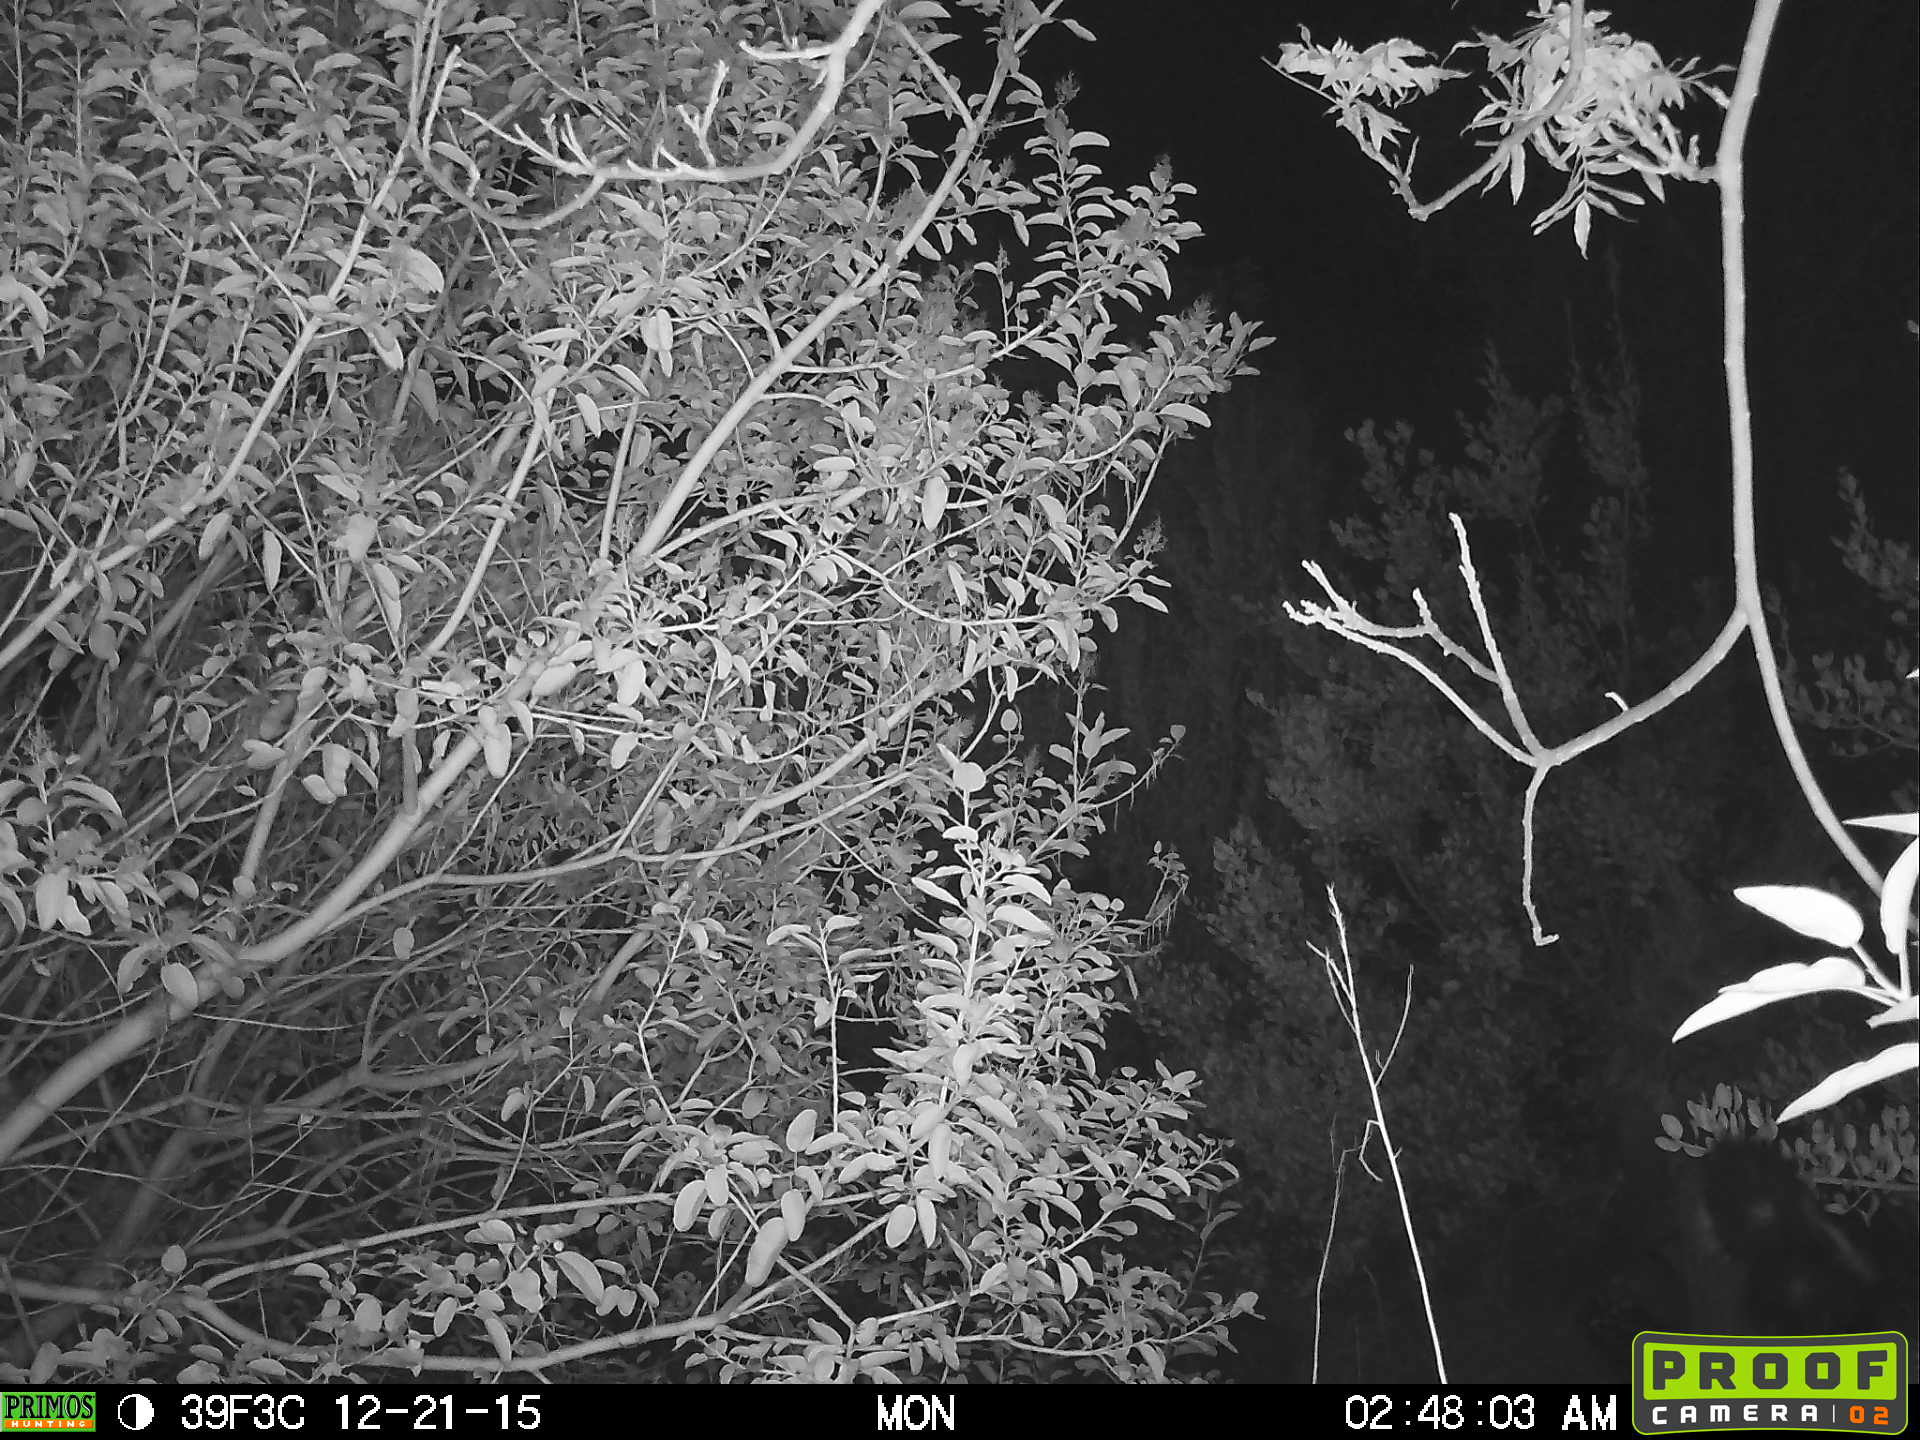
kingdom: Animalia
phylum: Chordata
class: Mammalia
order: Carnivora
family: Mephitidae
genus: Mephitis
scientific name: Mephitis mephitis
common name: Striped skunk
